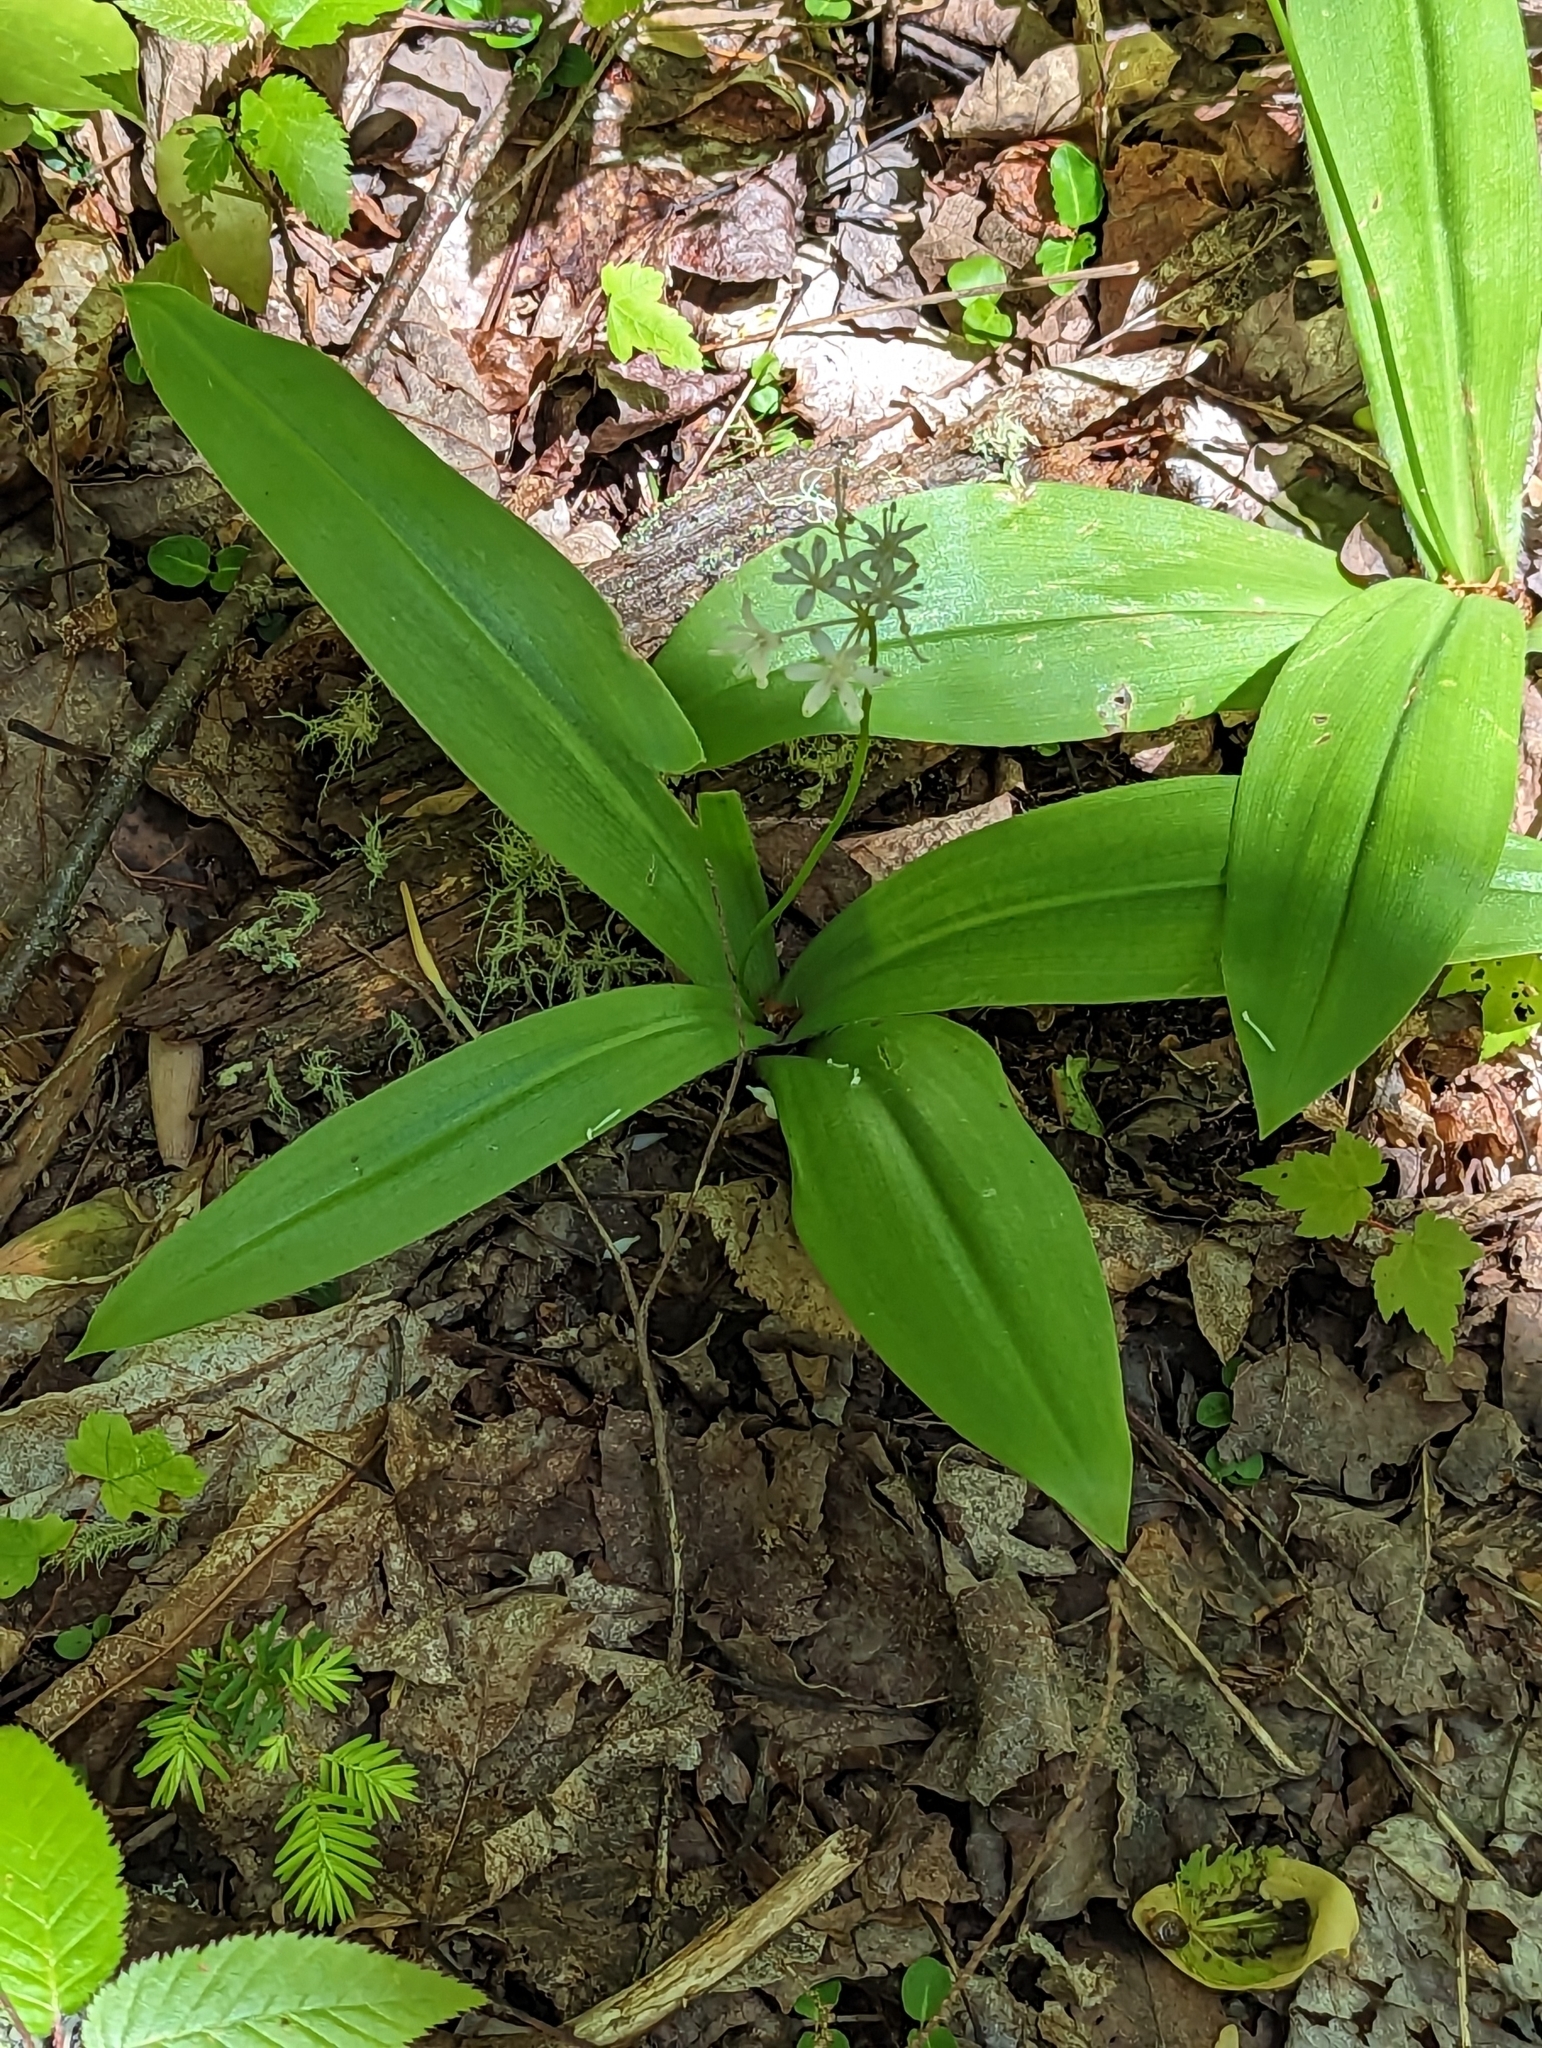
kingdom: Plantae
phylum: Tracheophyta
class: Liliopsida
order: Liliales
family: Liliaceae
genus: Clintonia
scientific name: Clintonia umbellulata
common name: Speckle wood-lily
